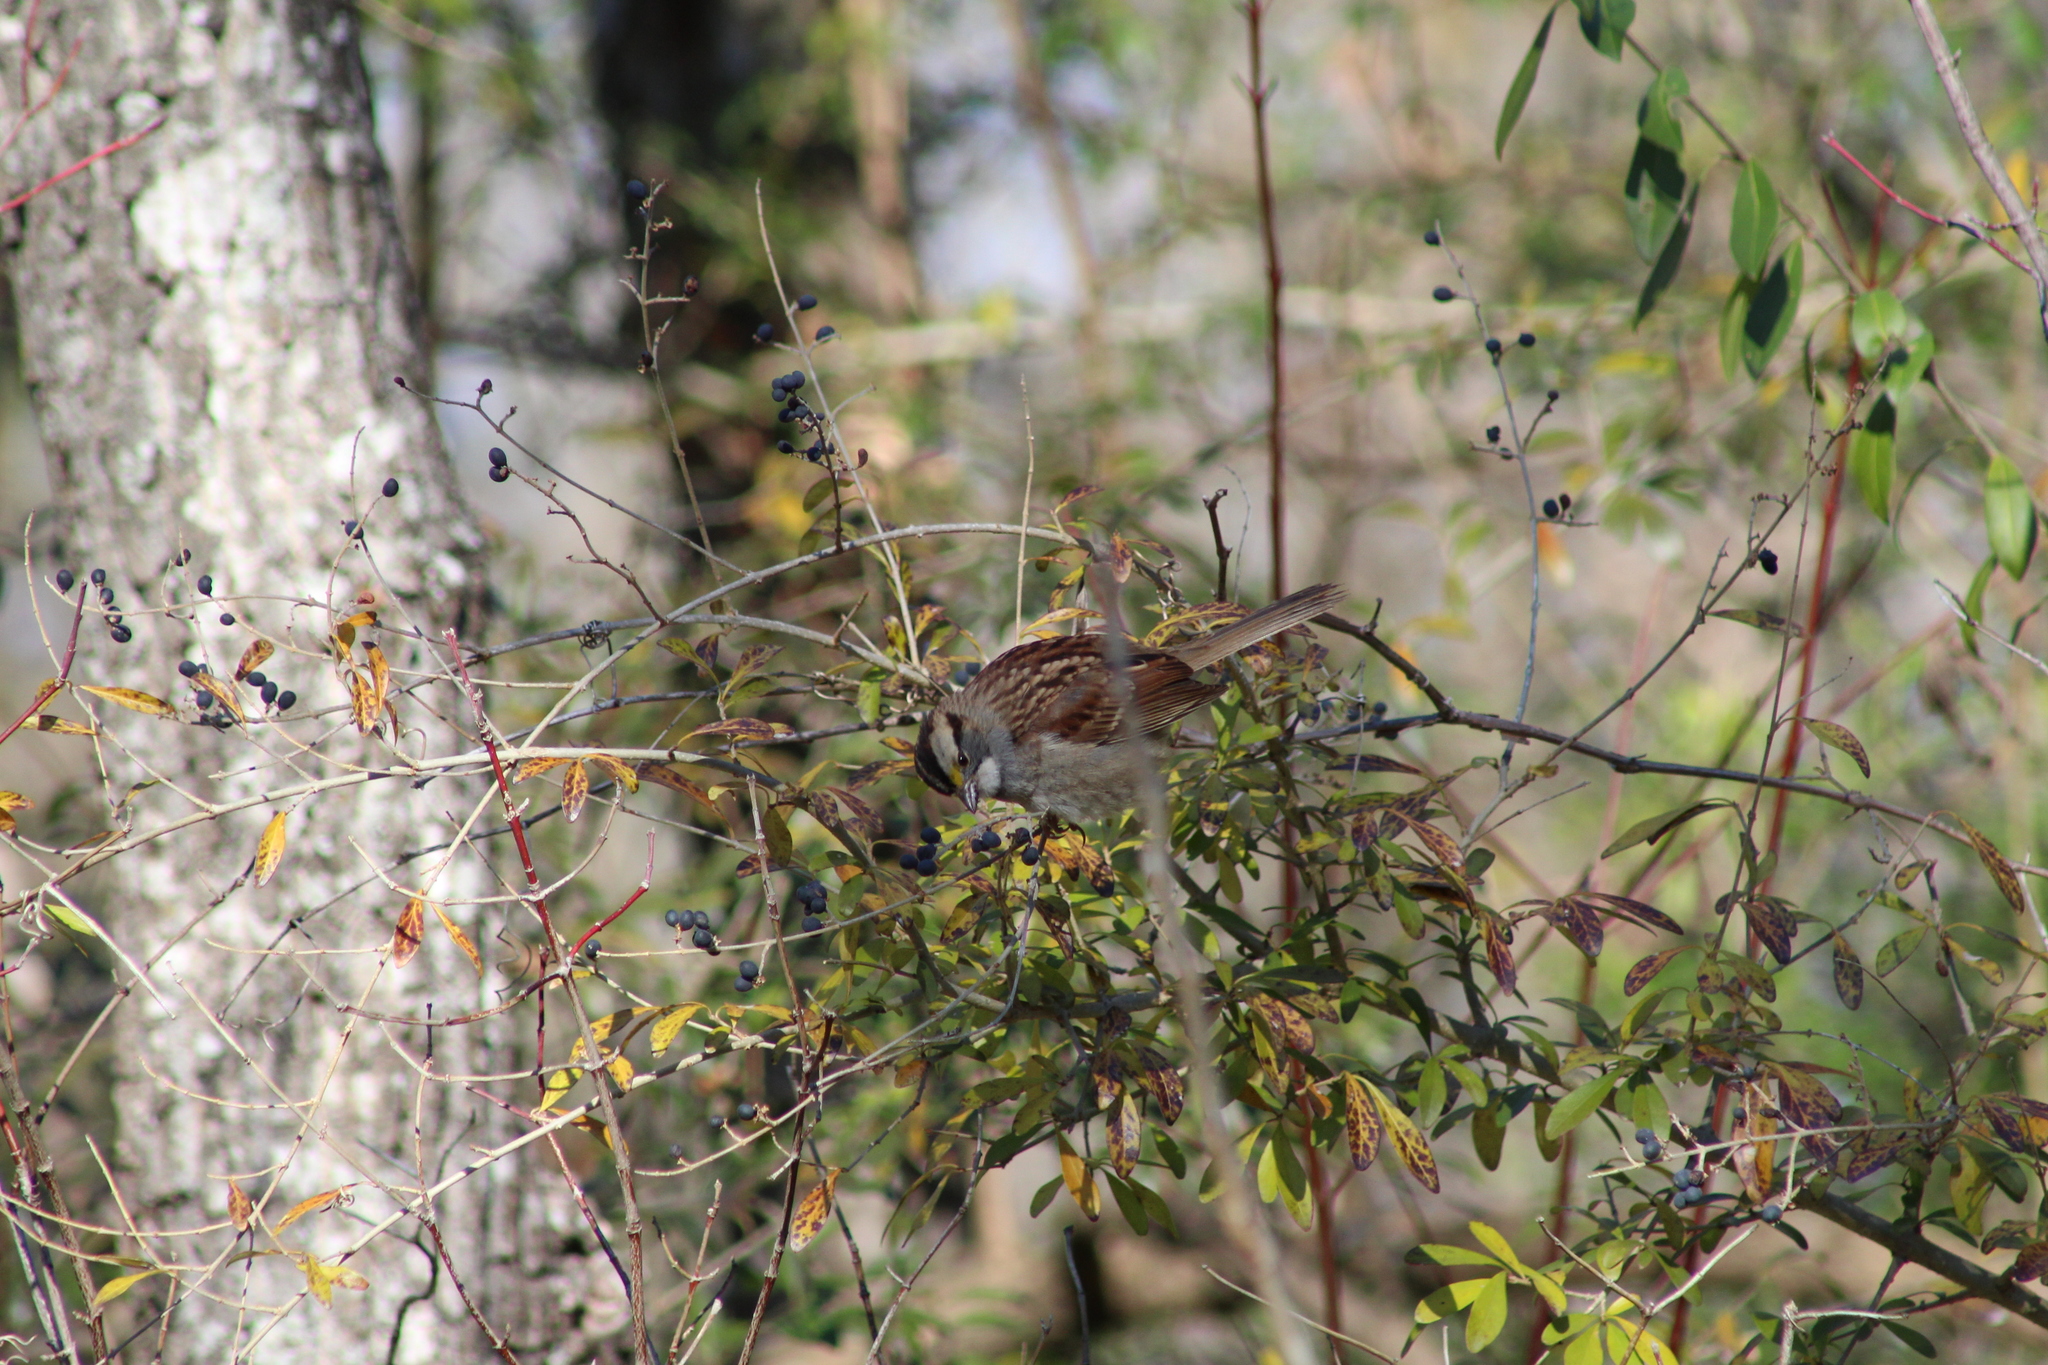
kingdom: Animalia
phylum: Chordata
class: Aves
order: Passeriformes
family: Passerellidae
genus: Zonotrichia
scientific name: Zonotrichia albicollis
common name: White-throated sparrow
